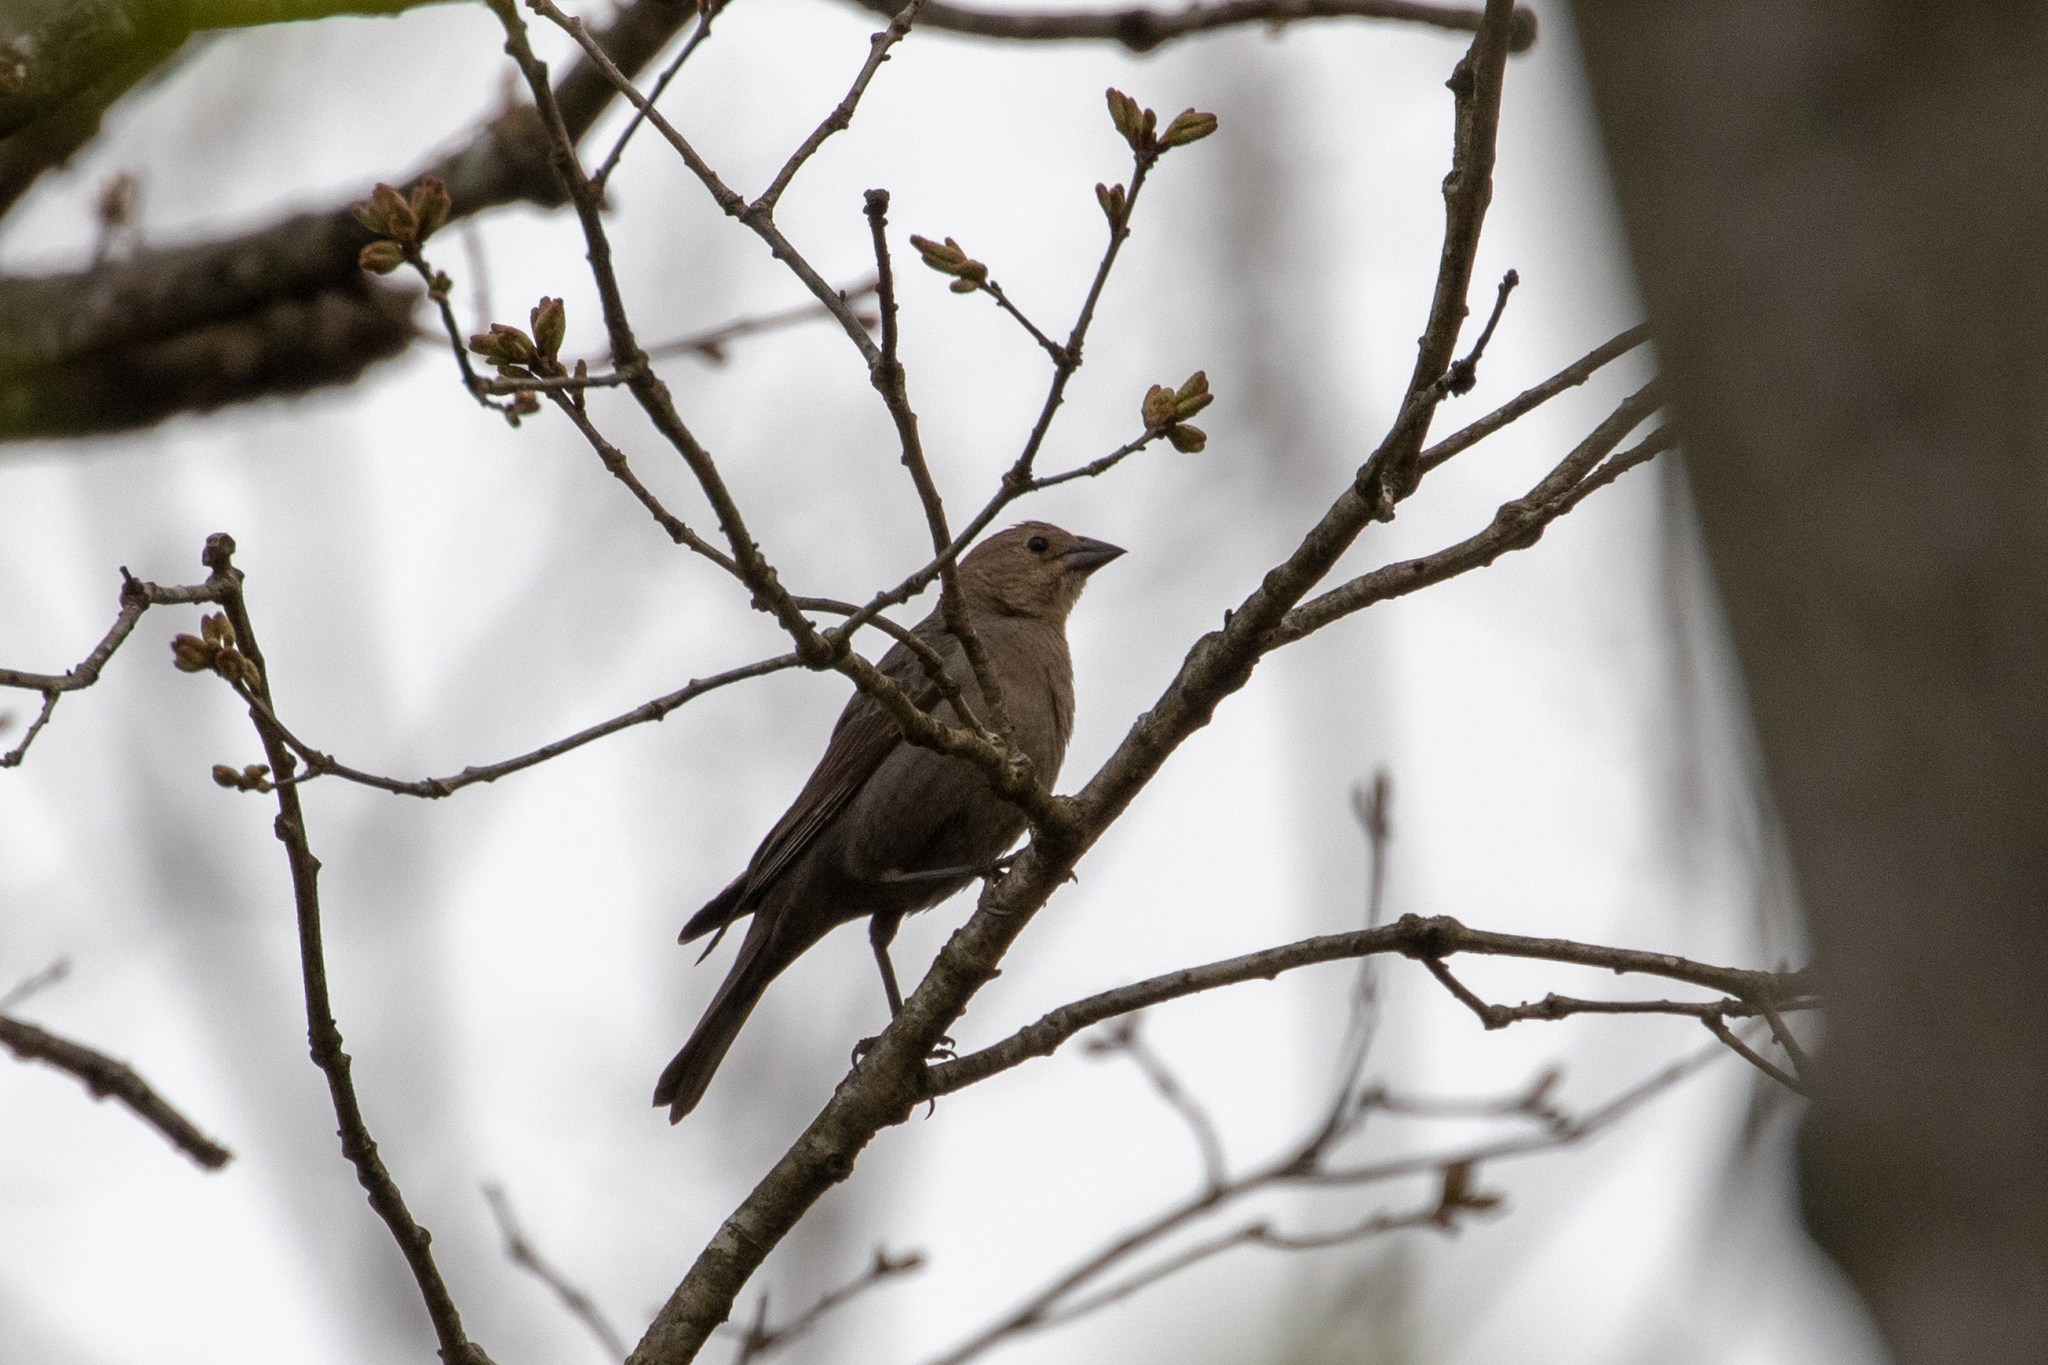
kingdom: Animalia
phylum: Chordata
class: Aves
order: Passeriformes
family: Icteridae
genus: Molothrus
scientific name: Molothrus ater
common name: Brown-headed cowbird
